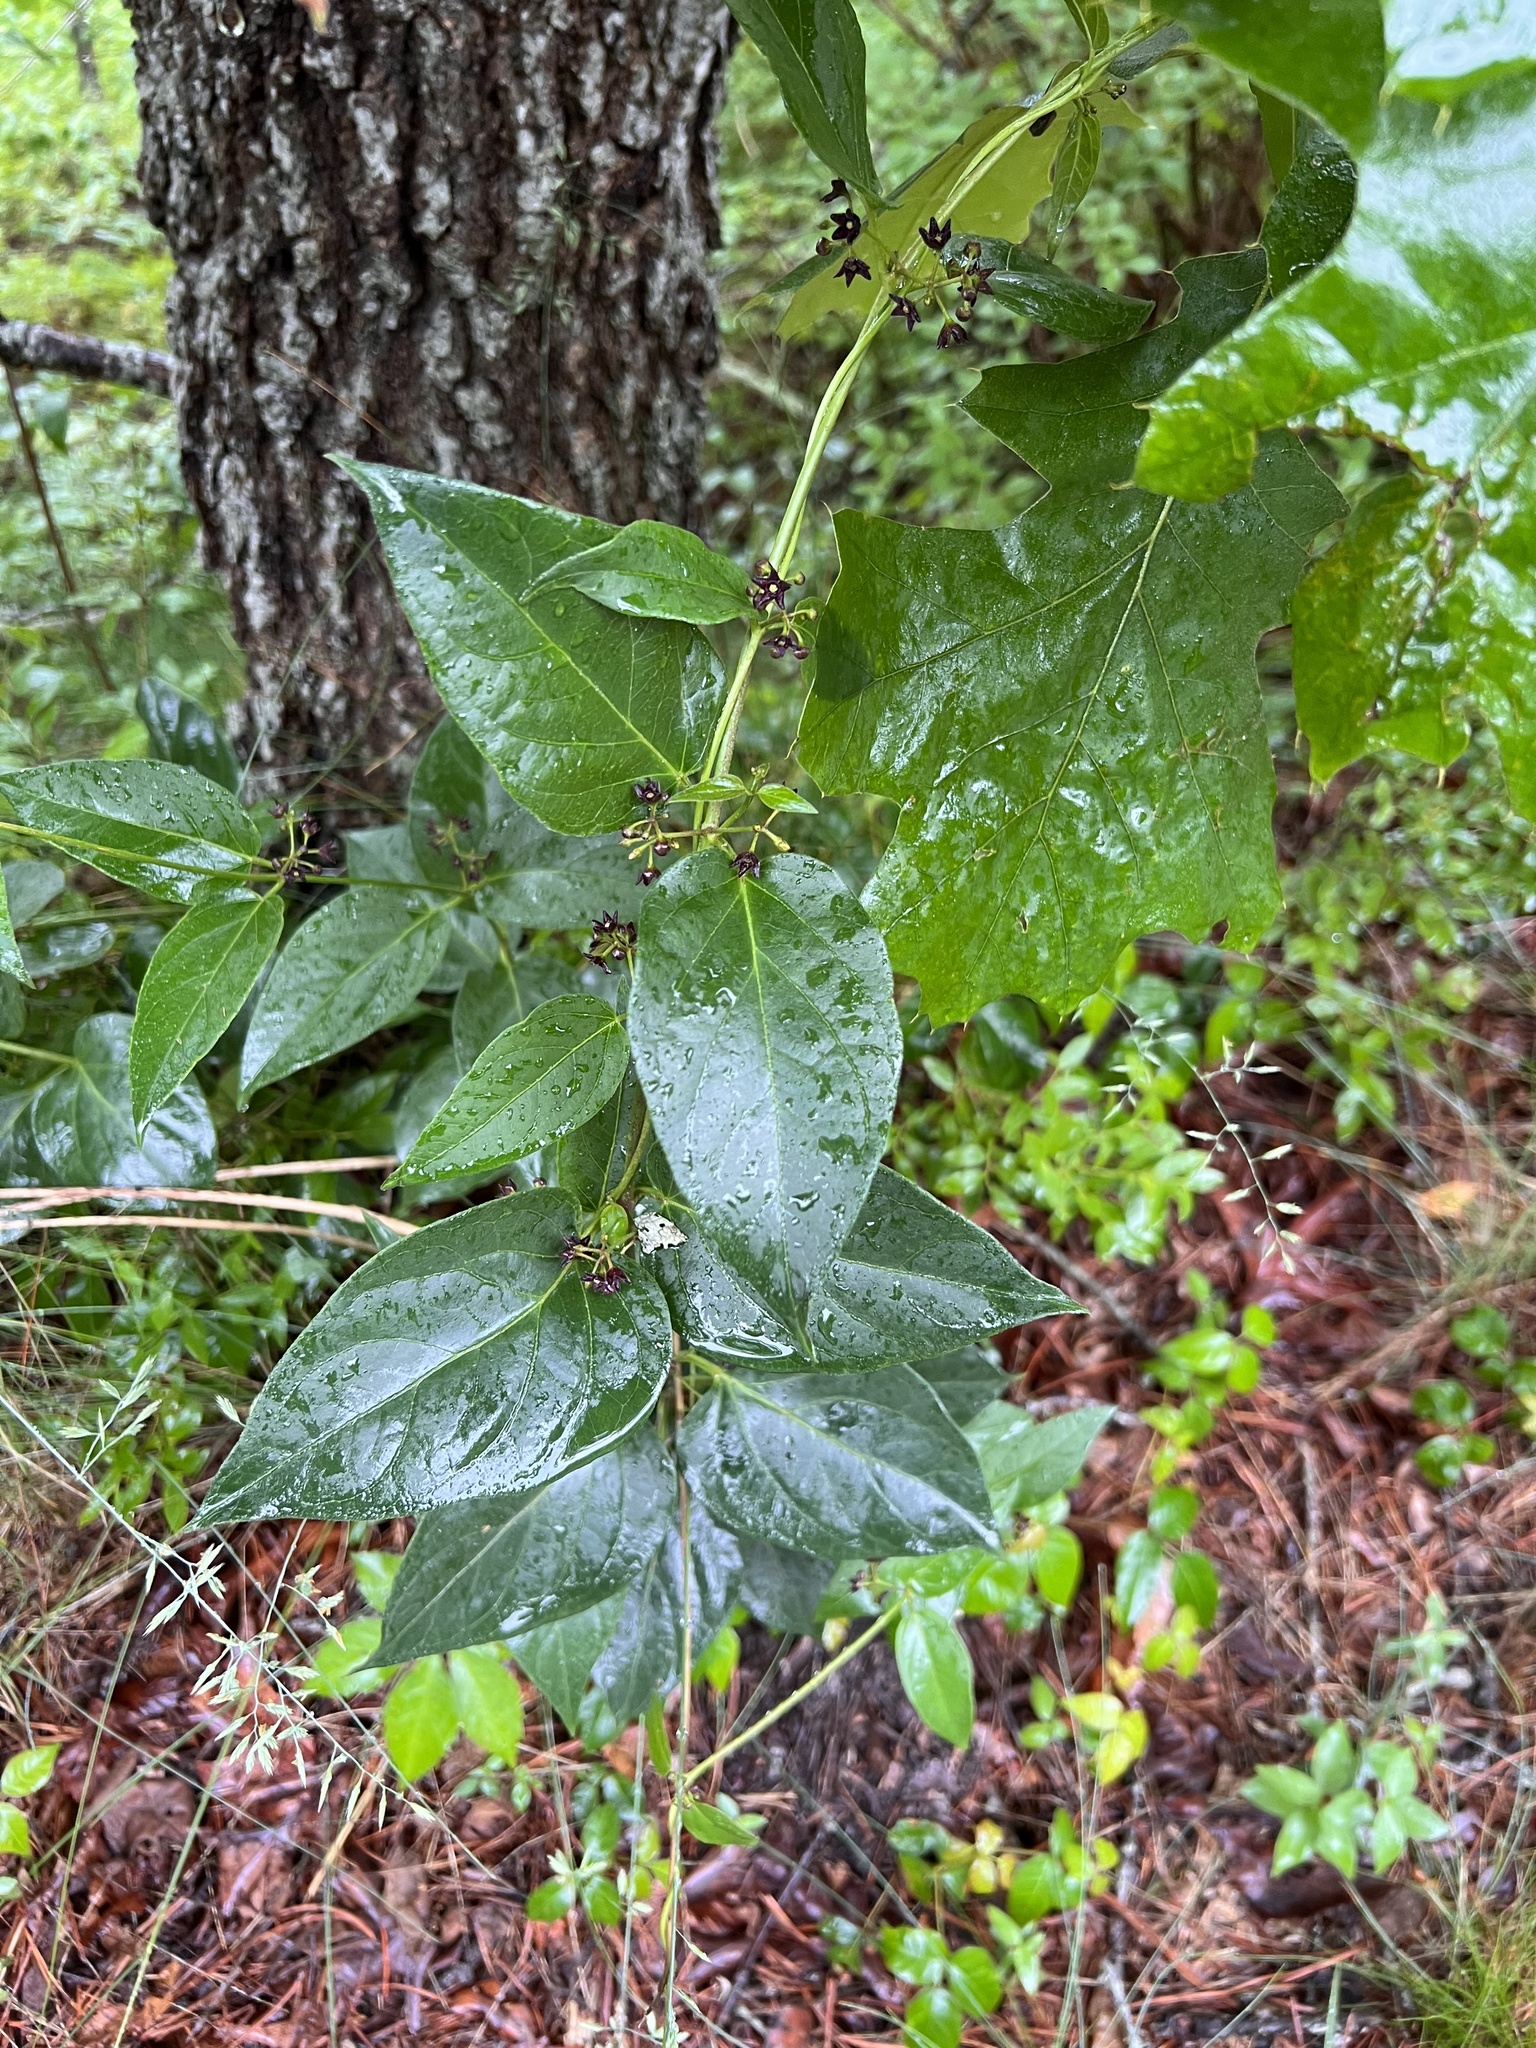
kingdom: Plantae
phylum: Tracheophyta
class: Magnoliopsida
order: Gentianales
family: Apocynaceae
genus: Vincetoxicum
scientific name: Vincetoxicum nigrum
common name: Black swallow-wort
